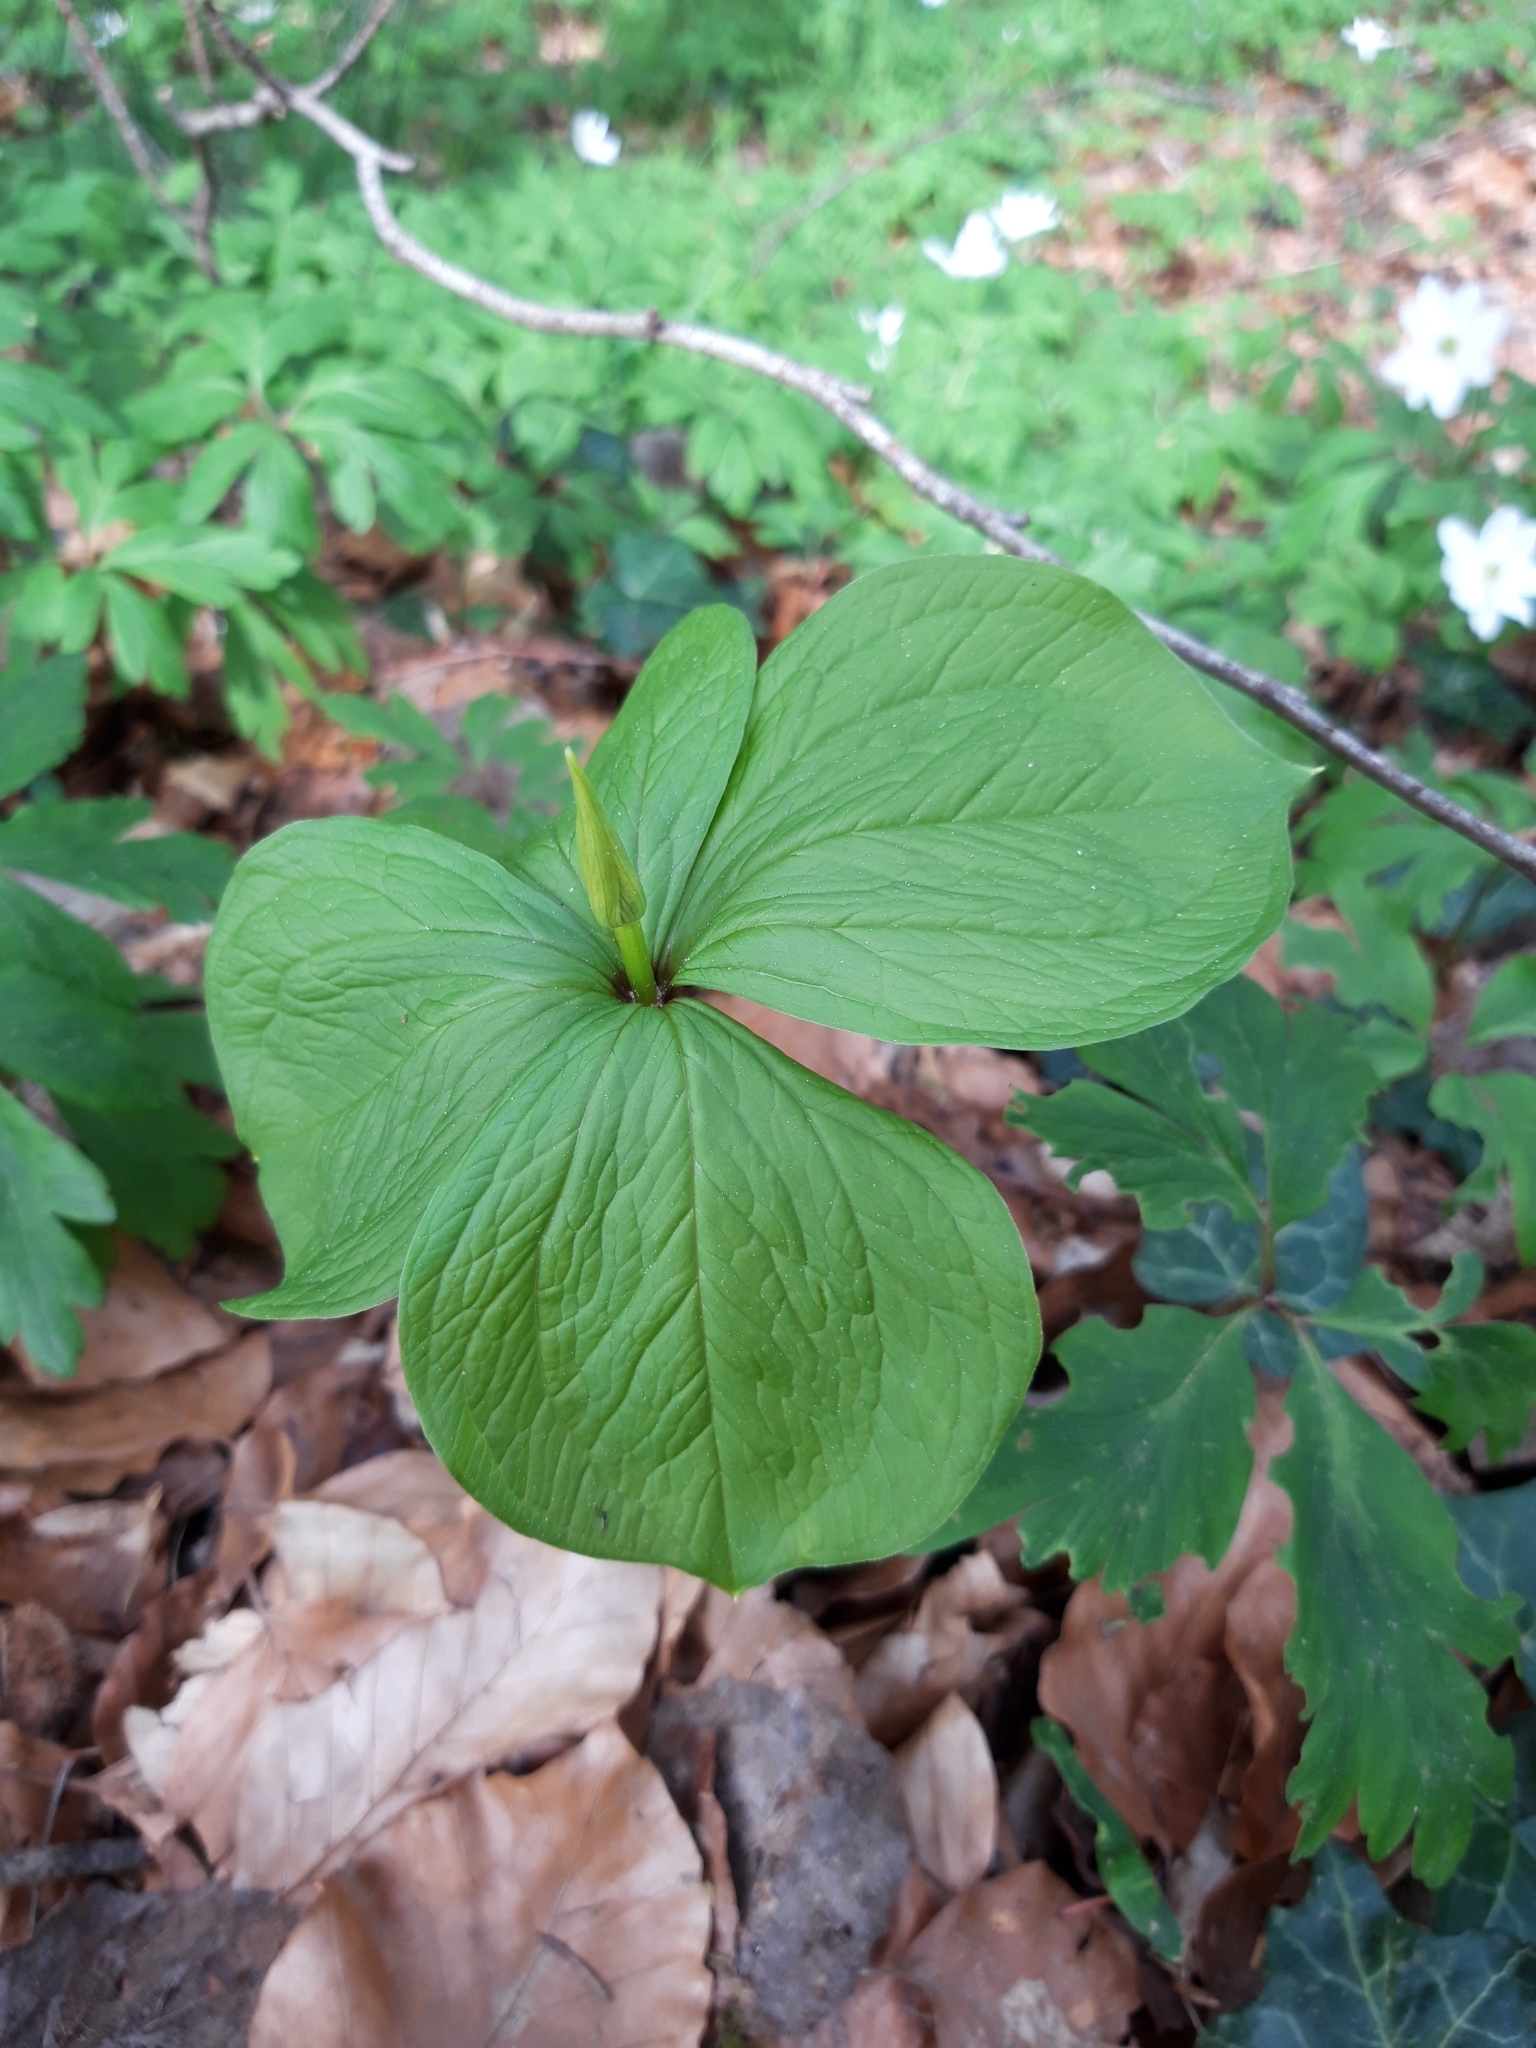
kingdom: Plantae
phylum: Tracheophyta
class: Liliopsida
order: Liliales
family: Melanthiaceae
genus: Paris
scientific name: Paris quadrifolia
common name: Herb-paris
